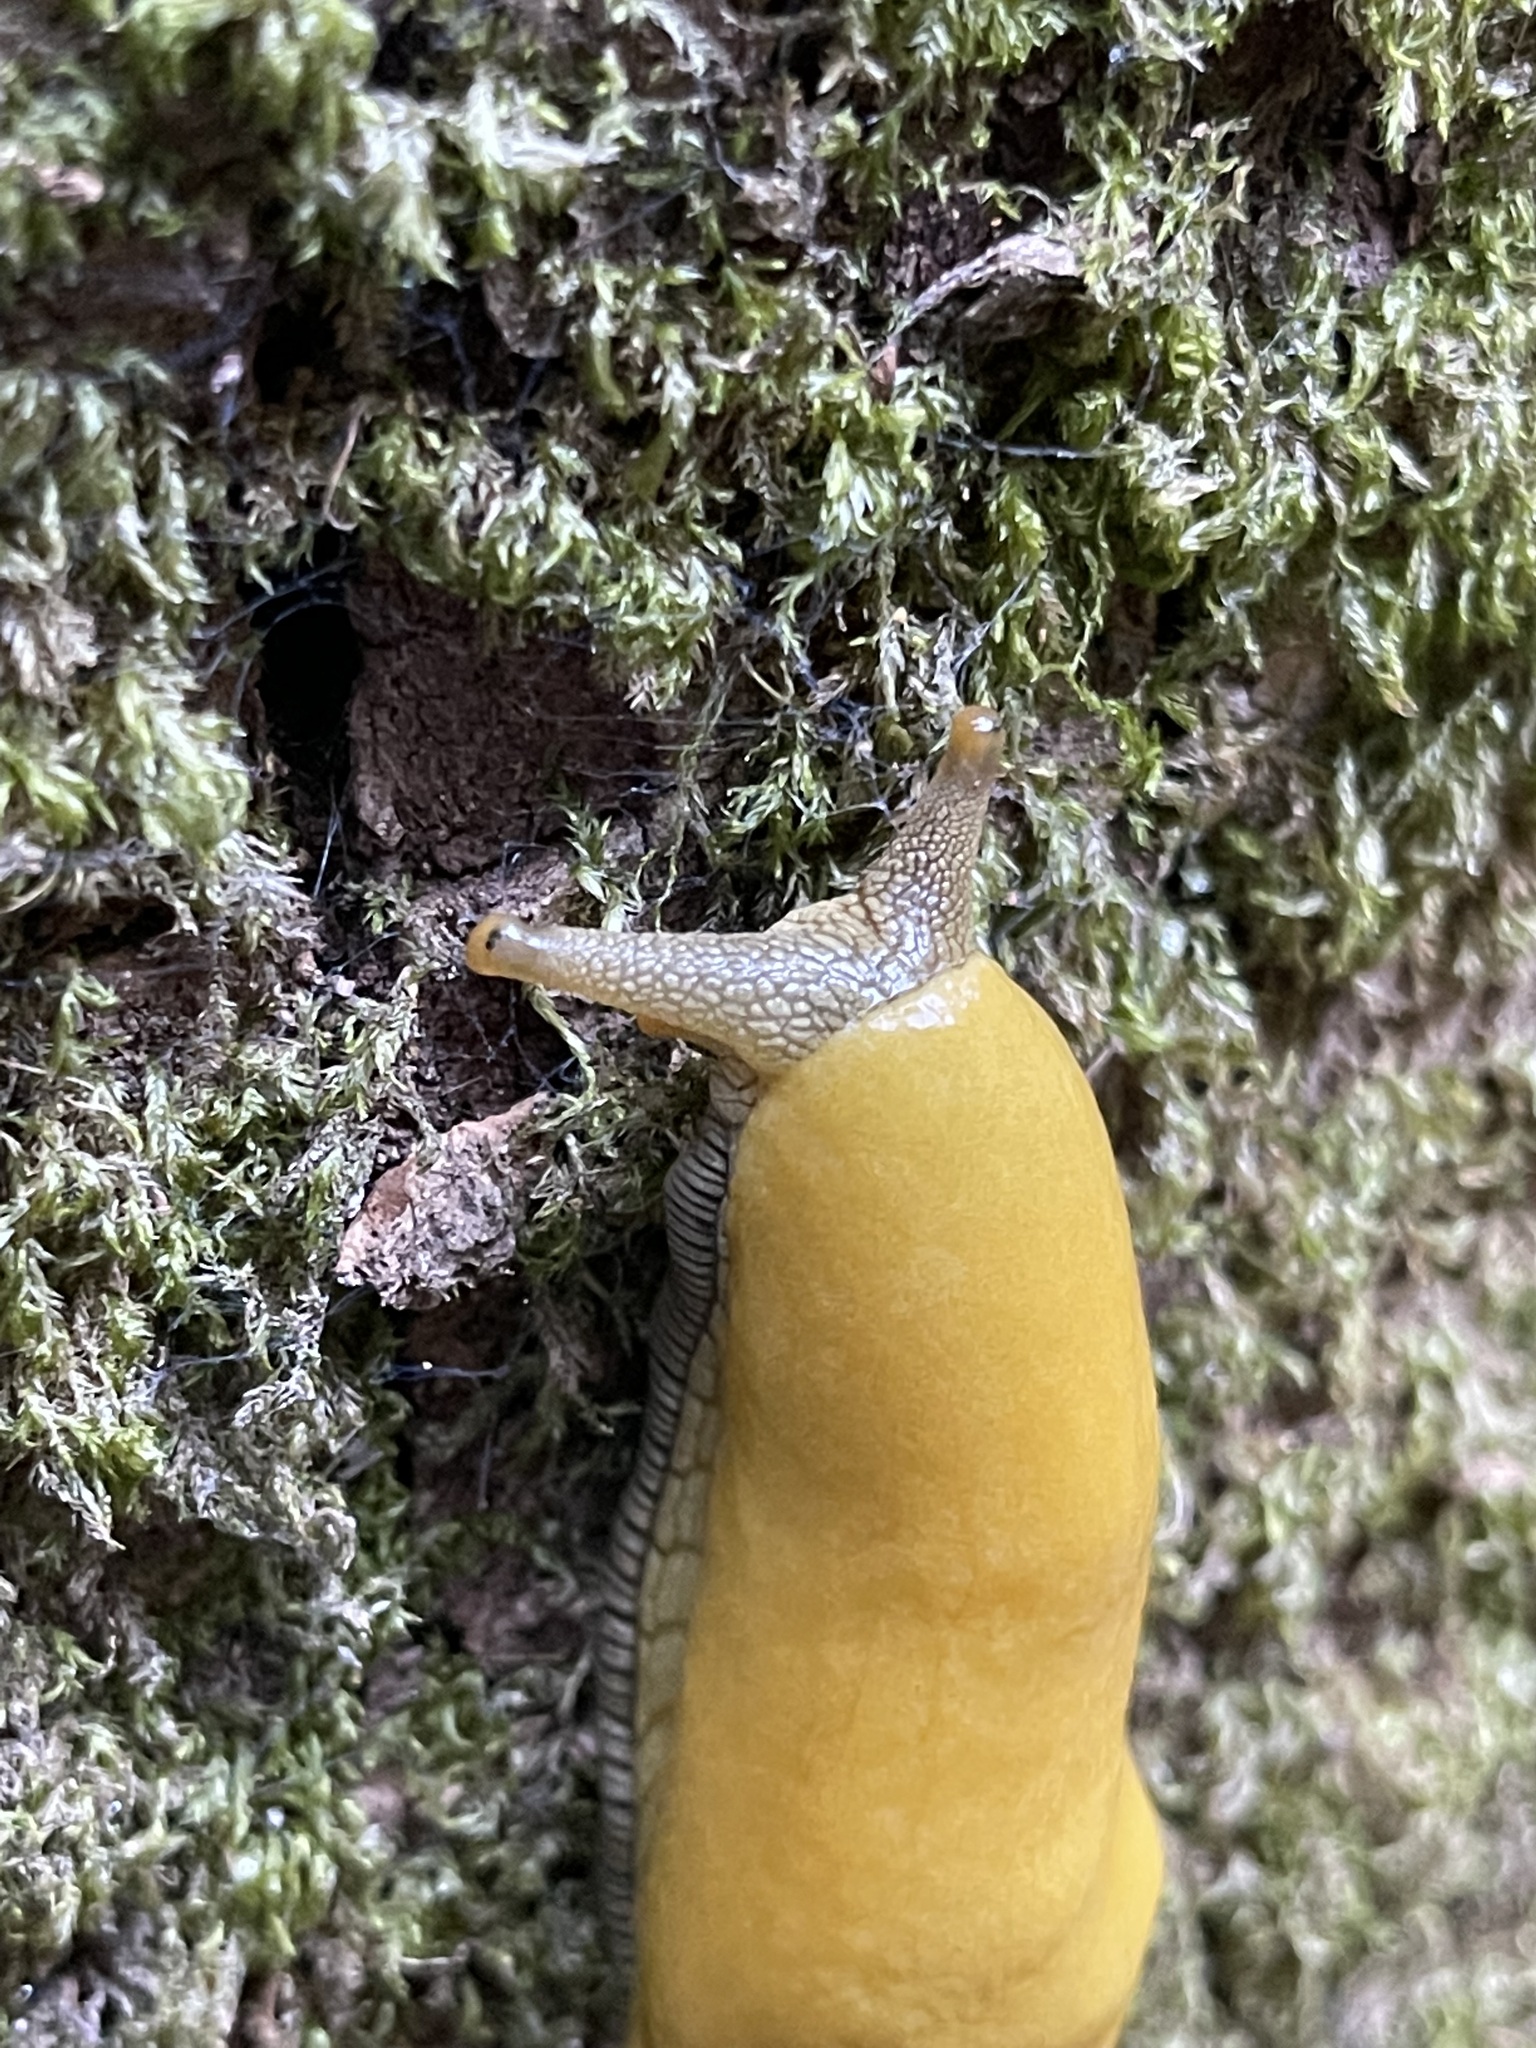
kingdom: Animalia
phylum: Mollusca
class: Gastropoda
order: Stylommatophora
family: Ariolimacidae
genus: Ariolimax
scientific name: Ariolimax dolichophallus
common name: Slender banana slug
